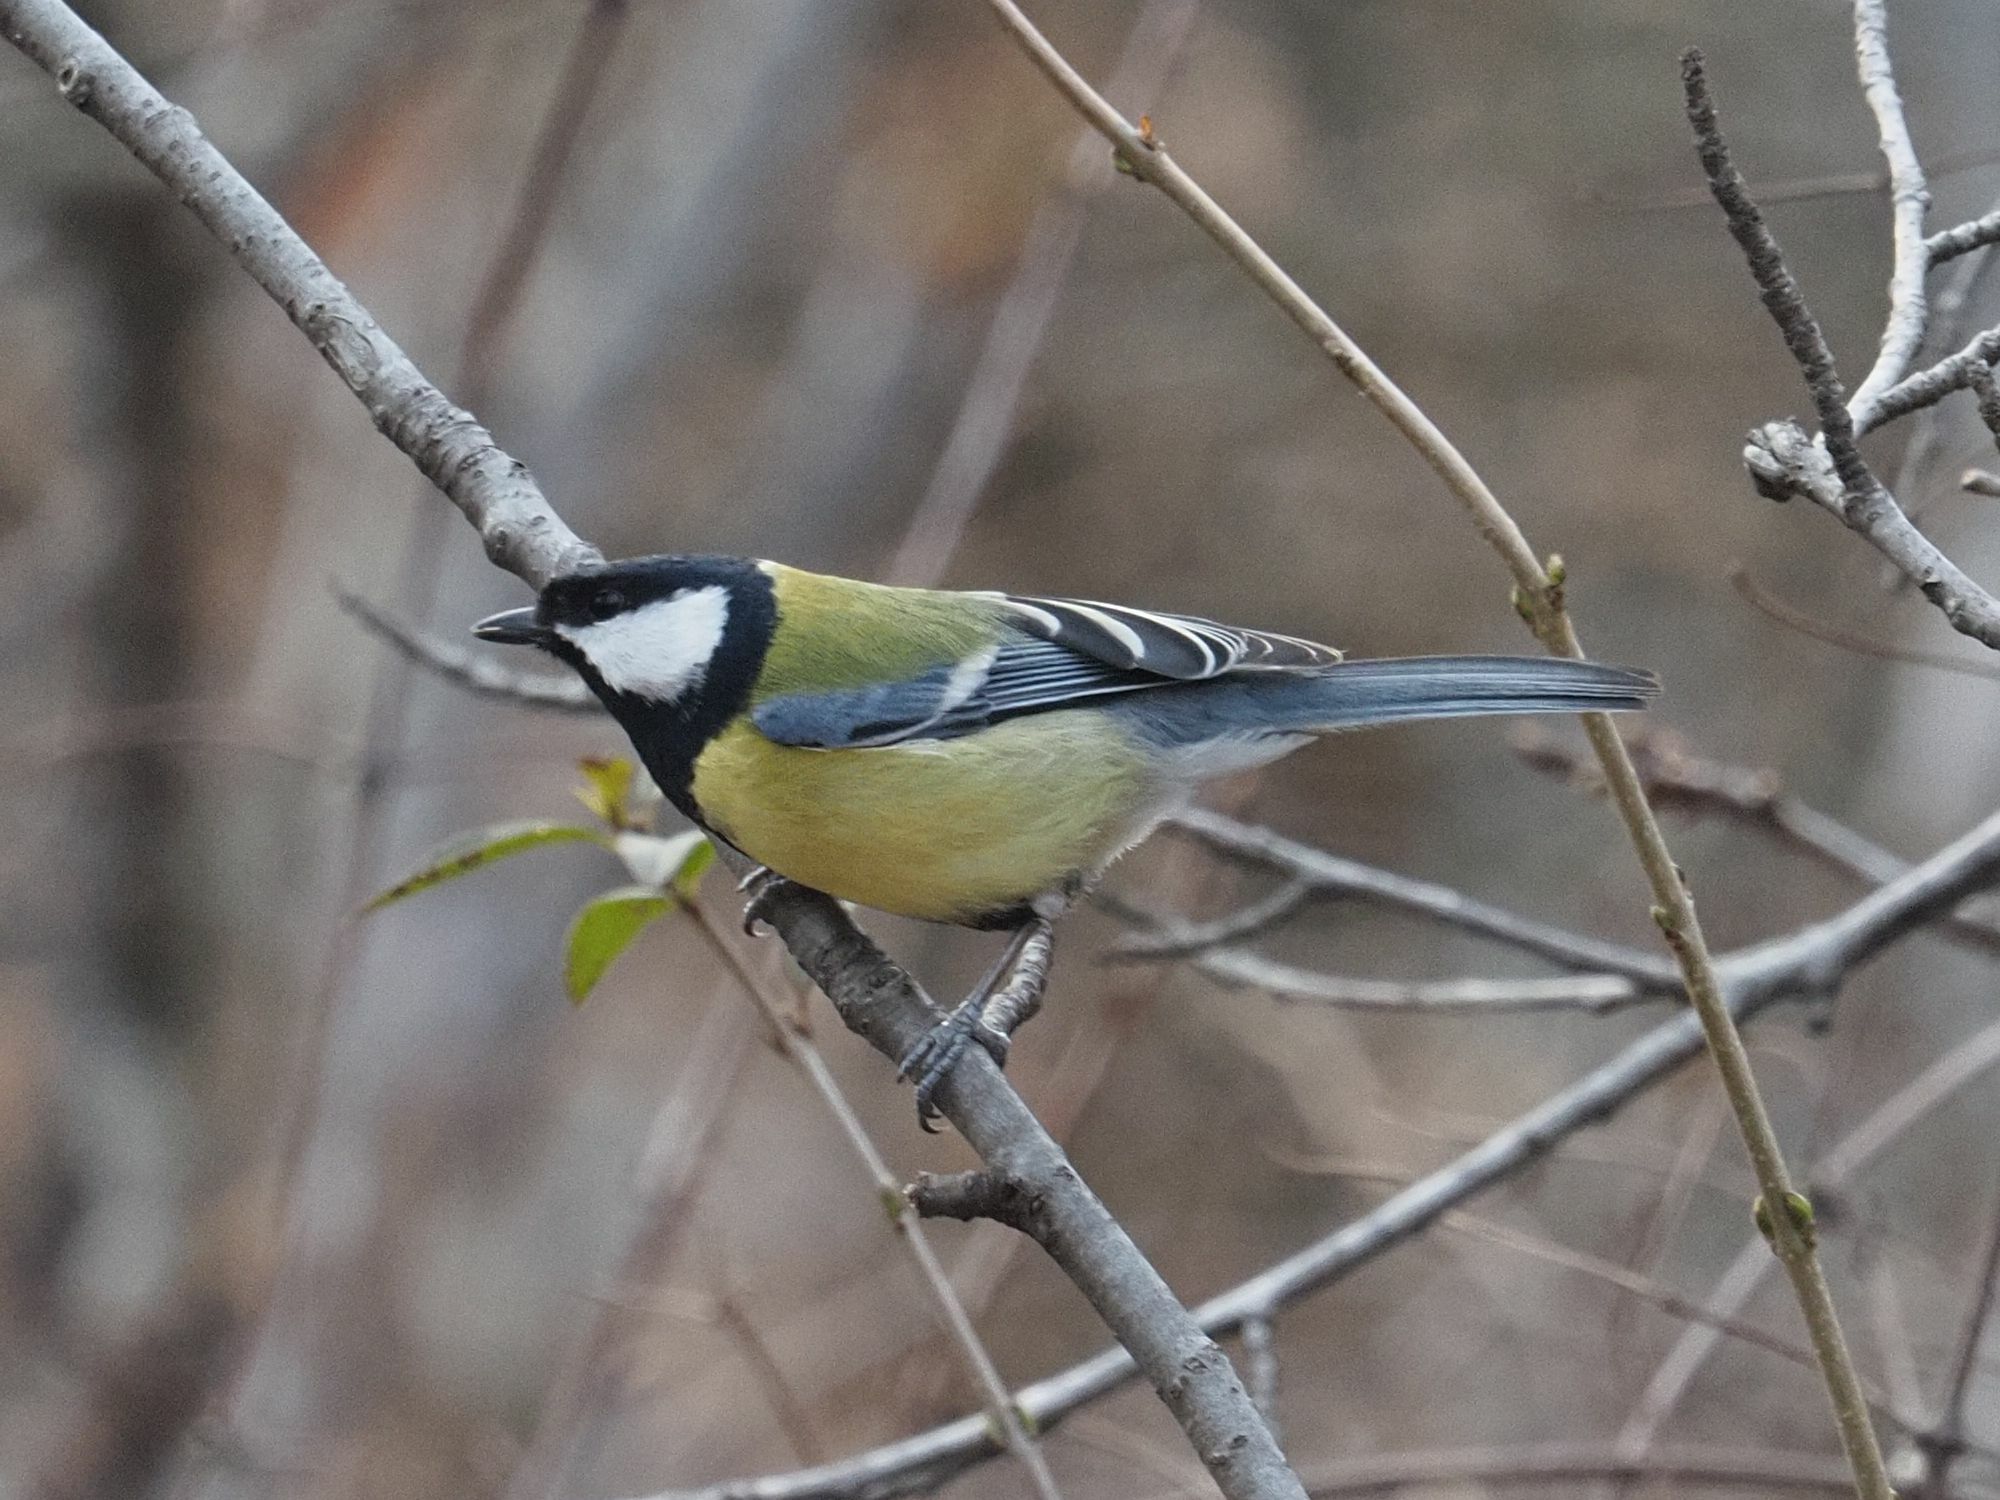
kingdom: Animalia
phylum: Chordata
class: Aves
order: Passeriformes
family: Paridae
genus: Parus
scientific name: Parus major
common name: Great tit
